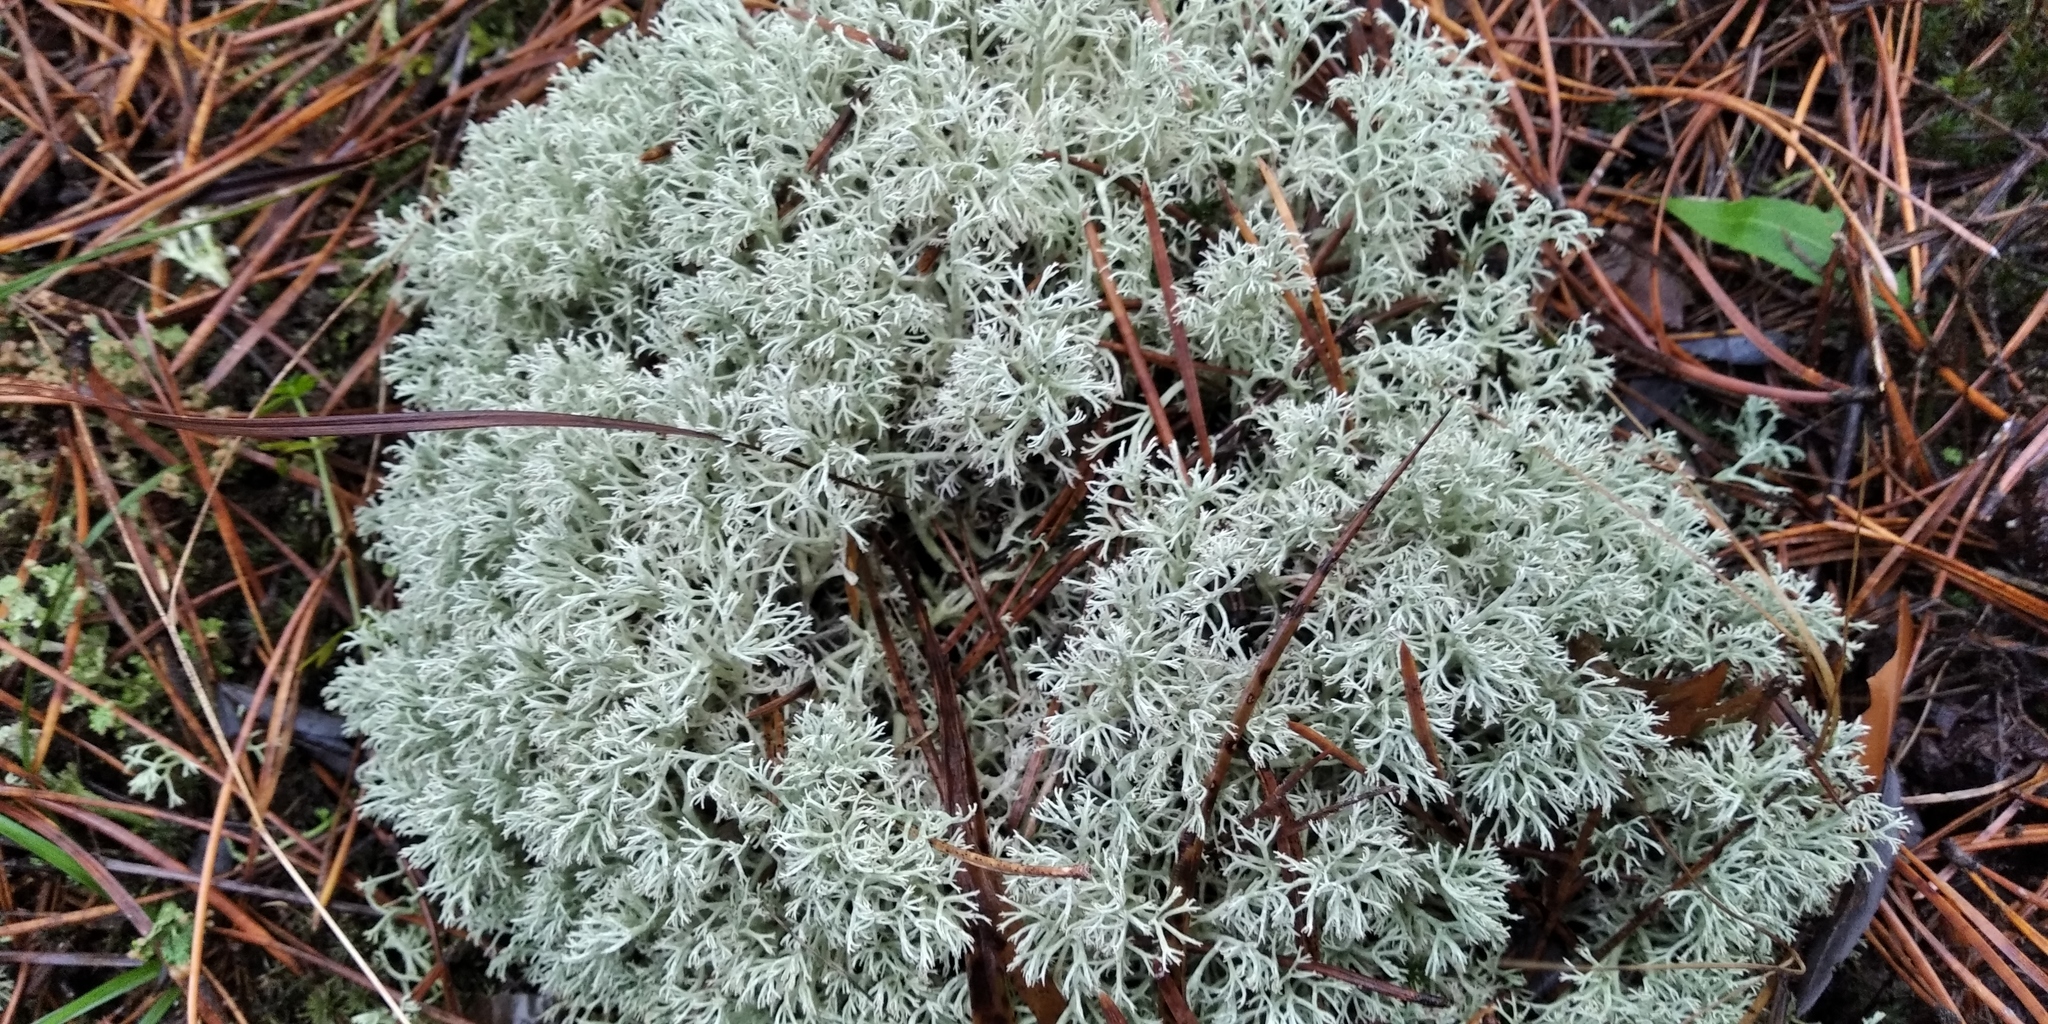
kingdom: Fungi
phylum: Ascomycota
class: Lecanoromycetes
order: Lecanorales
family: Cladoniaceae
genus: Cladonia
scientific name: Cladonia arbuscula
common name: Reindeer lichen
